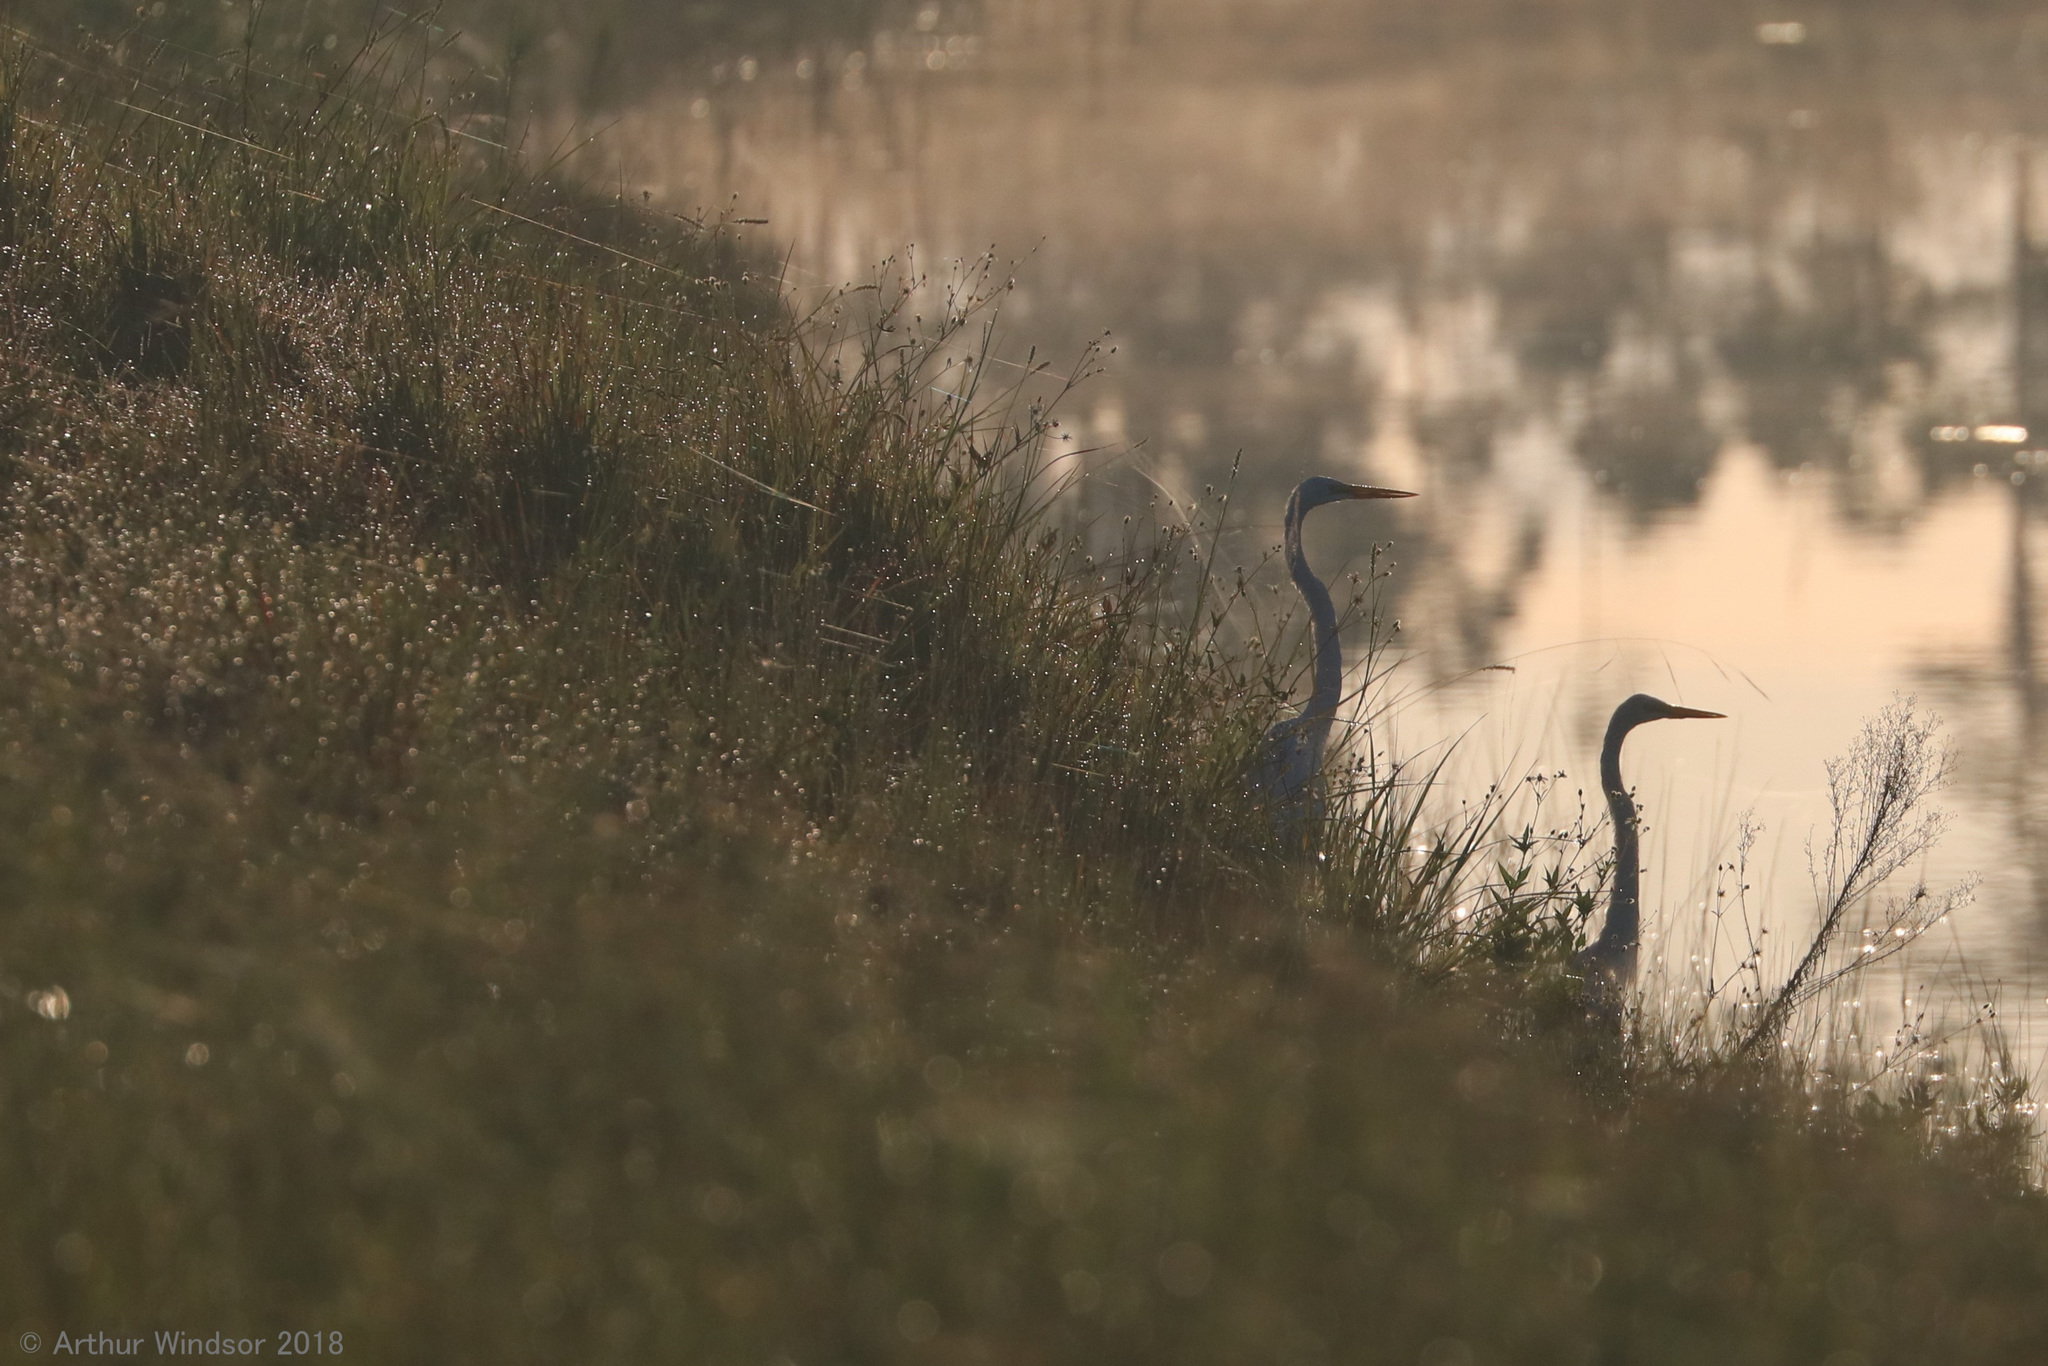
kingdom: Animalia
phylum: Chordata
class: Aves
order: Pelecaniformes
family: Ardeidae
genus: Ardea
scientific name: Ardea alba
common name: Great egret
